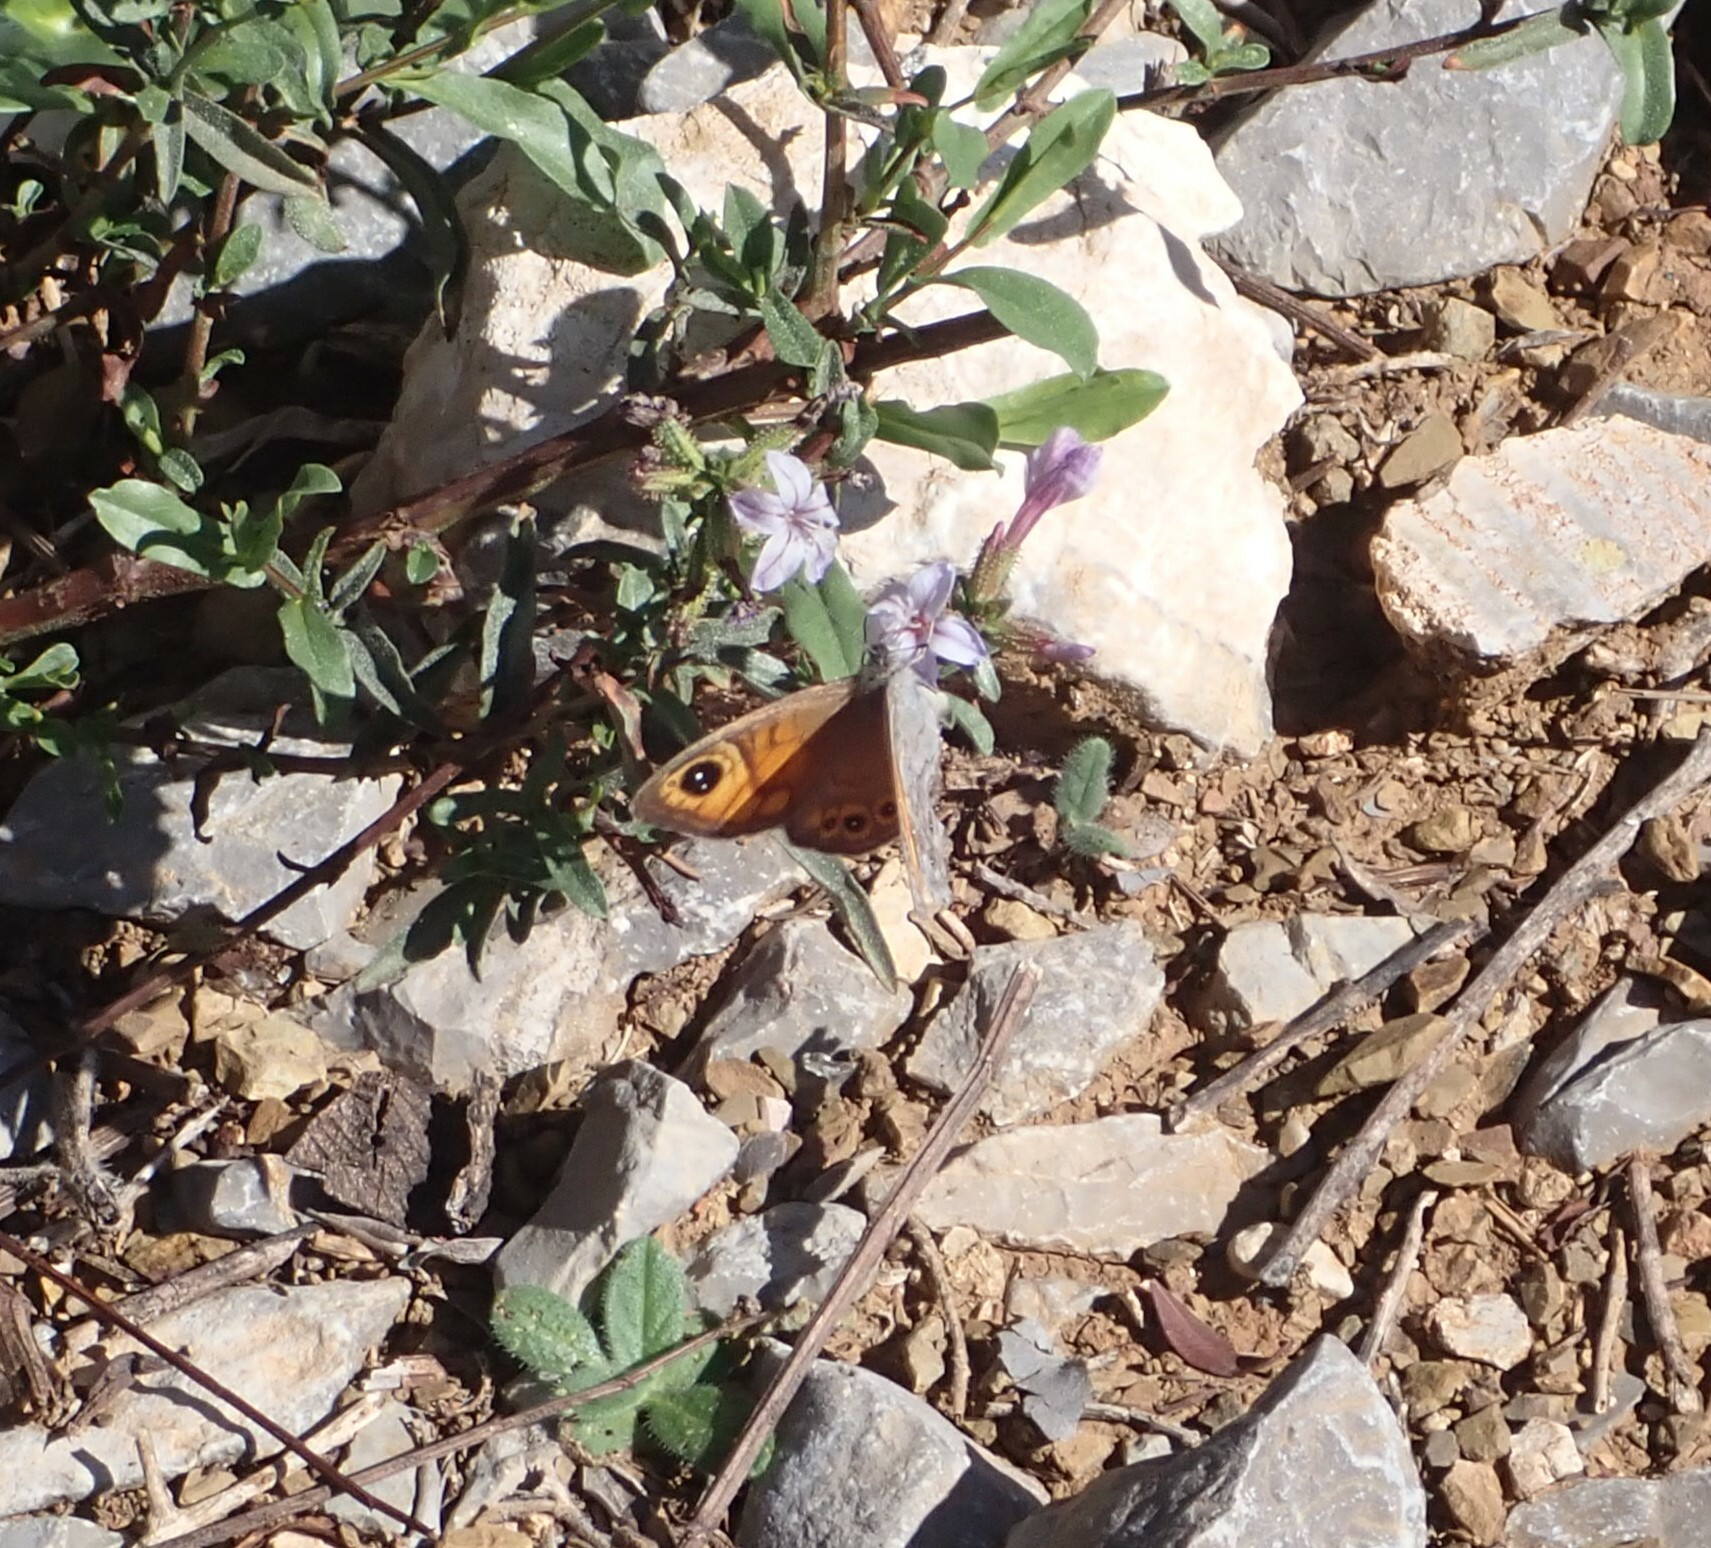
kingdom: Animalia
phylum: Arthropoda
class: Insecta
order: Lepidoptera
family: Nymphalidae
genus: Pararge
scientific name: Pararge Lasiommata maera
